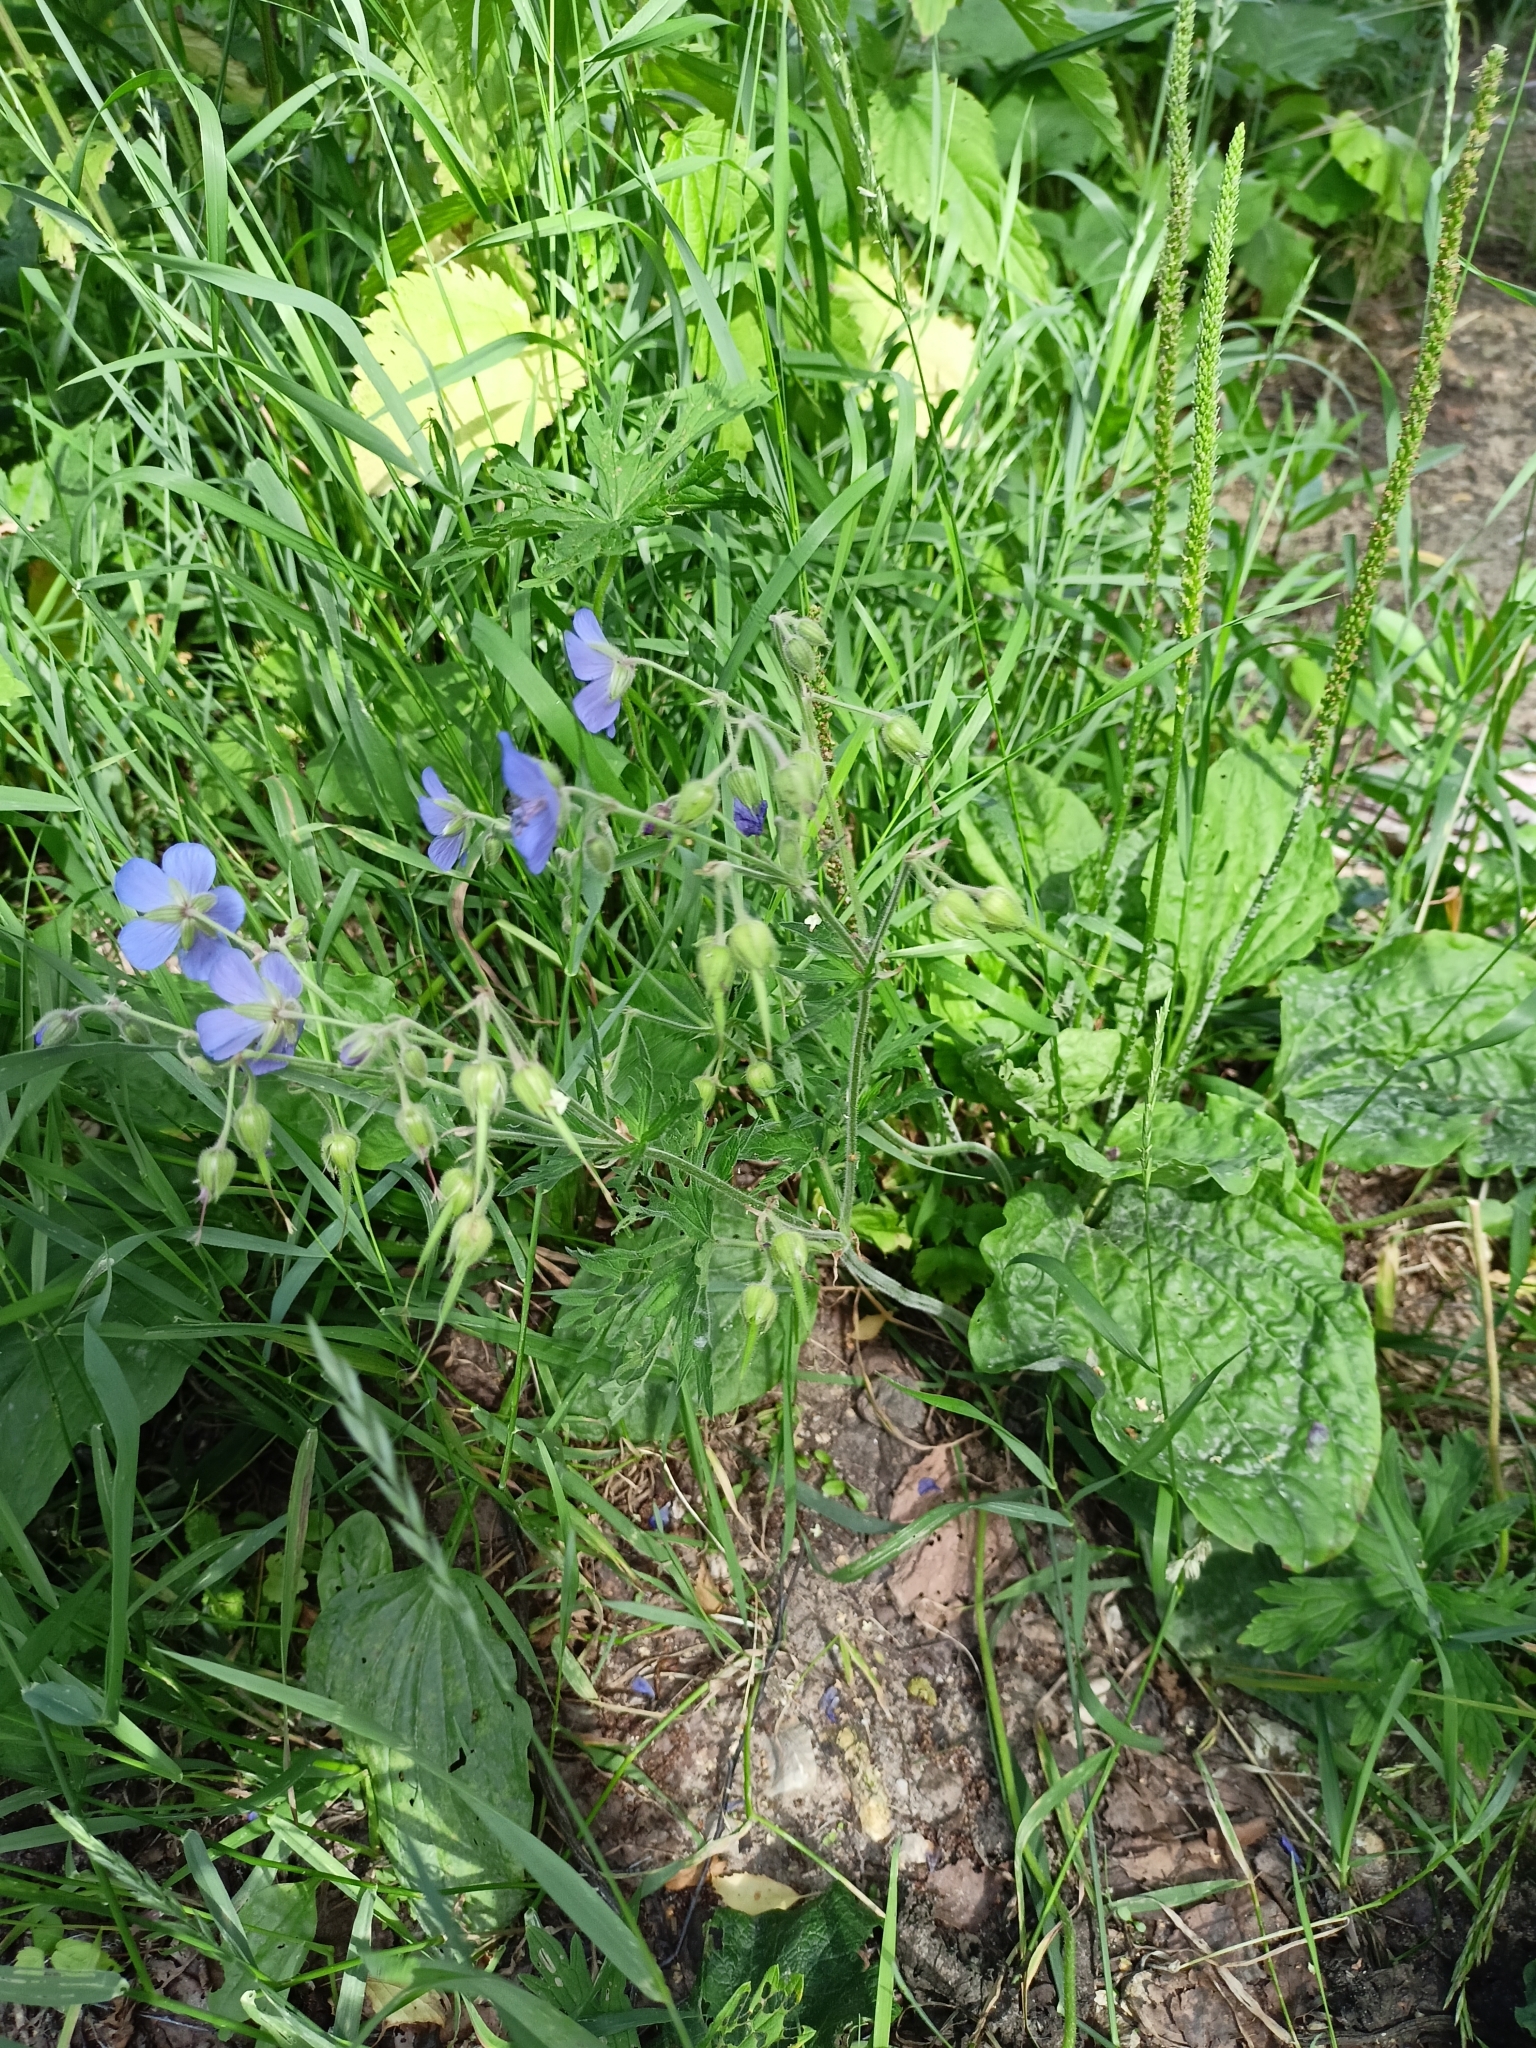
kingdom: Plantae
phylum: Tracheophyta
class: Magnoliopsida
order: Geraniales
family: Geraniaceae
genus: Geranium
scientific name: Geranium pratense
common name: Meadow crane's-bill
